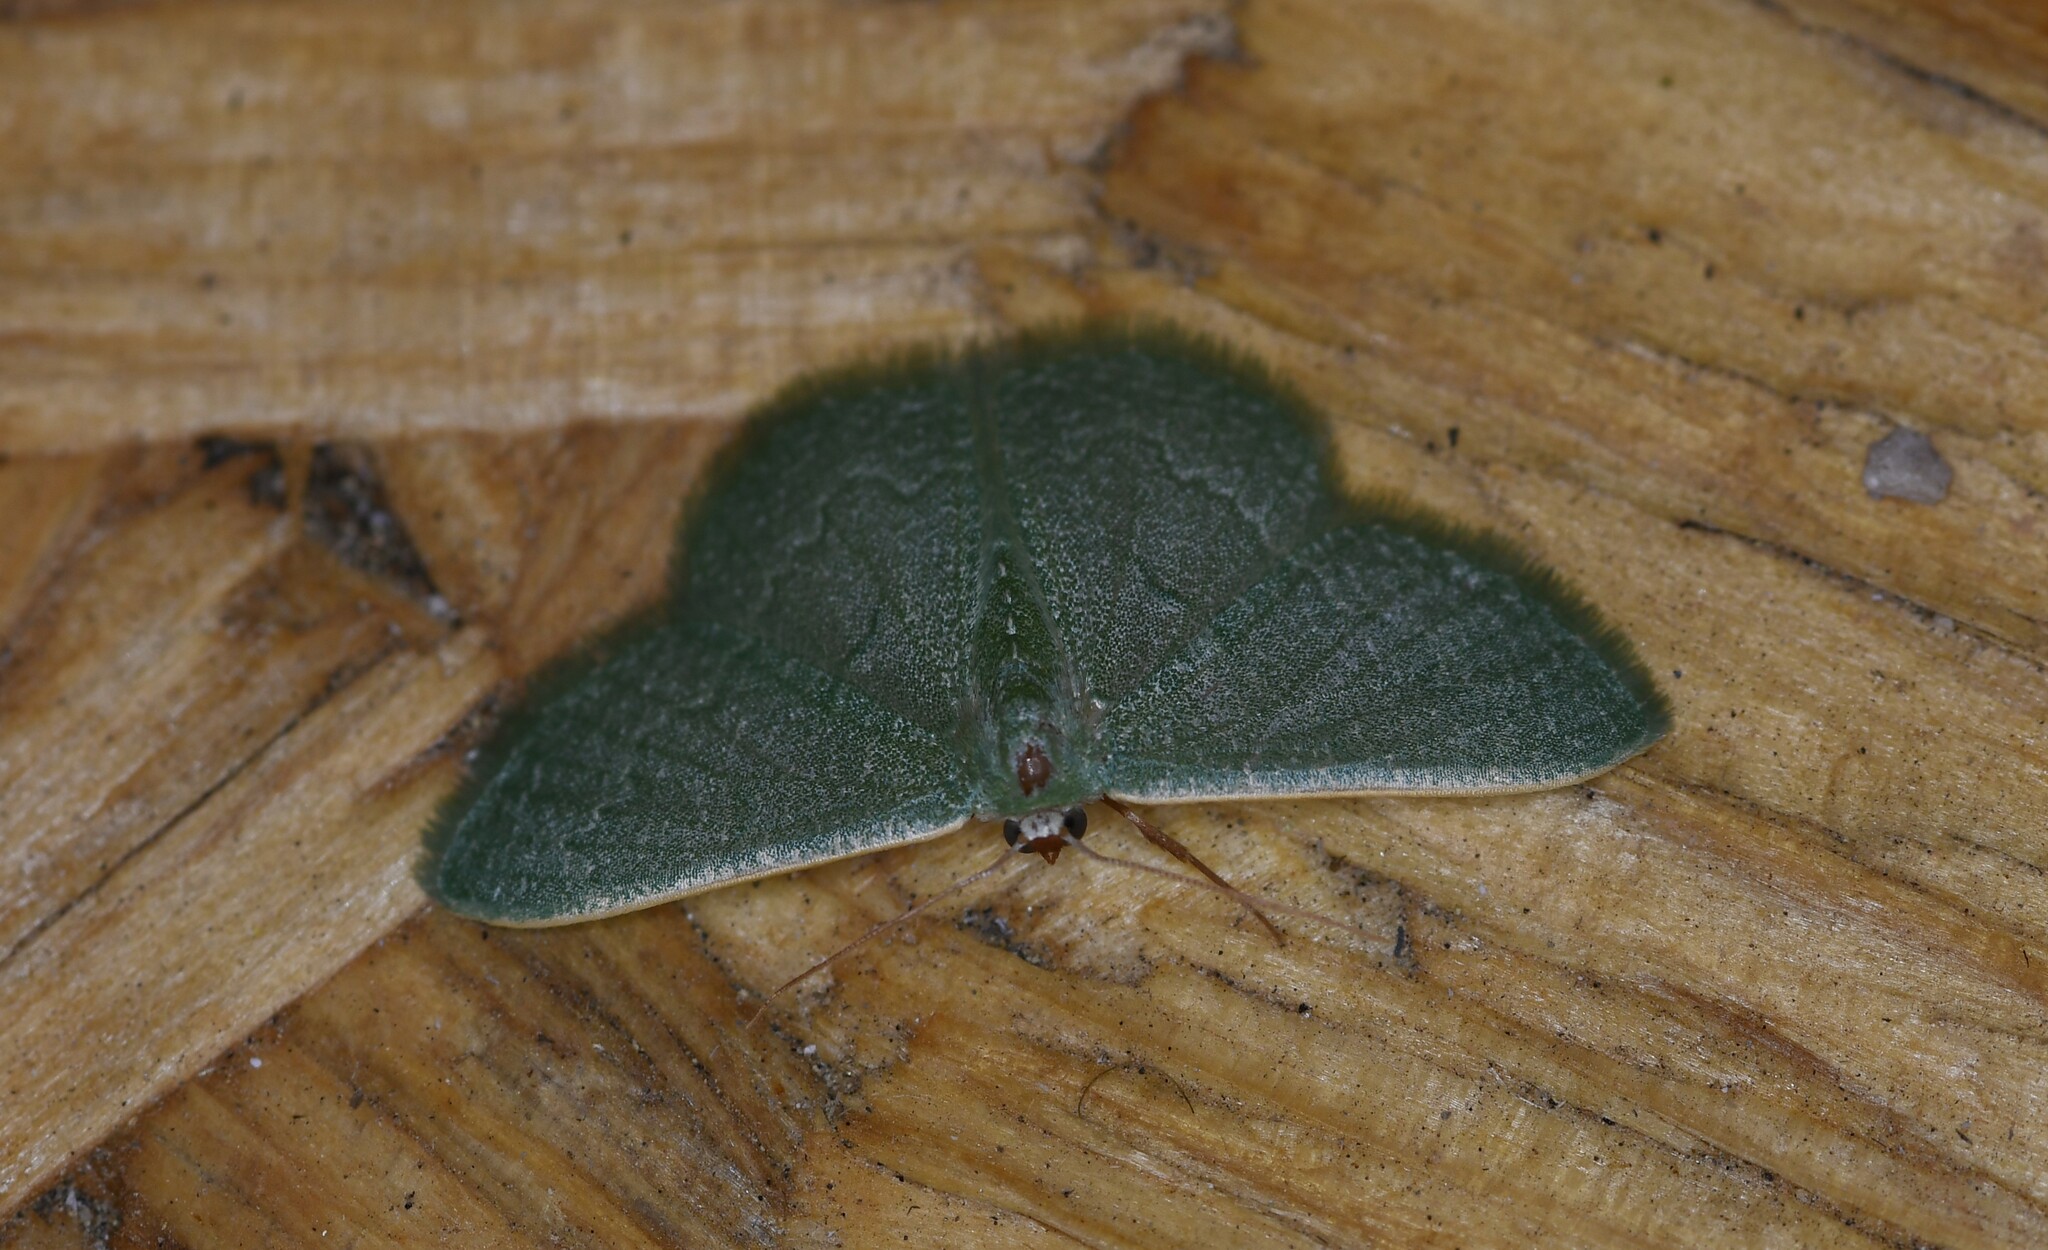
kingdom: Animalia
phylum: Arthropoda
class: Insecta
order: Lepidoptera
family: Geometridae
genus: Phaiogramma
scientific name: Phaiogramma faustinata
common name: Millière's emerald
